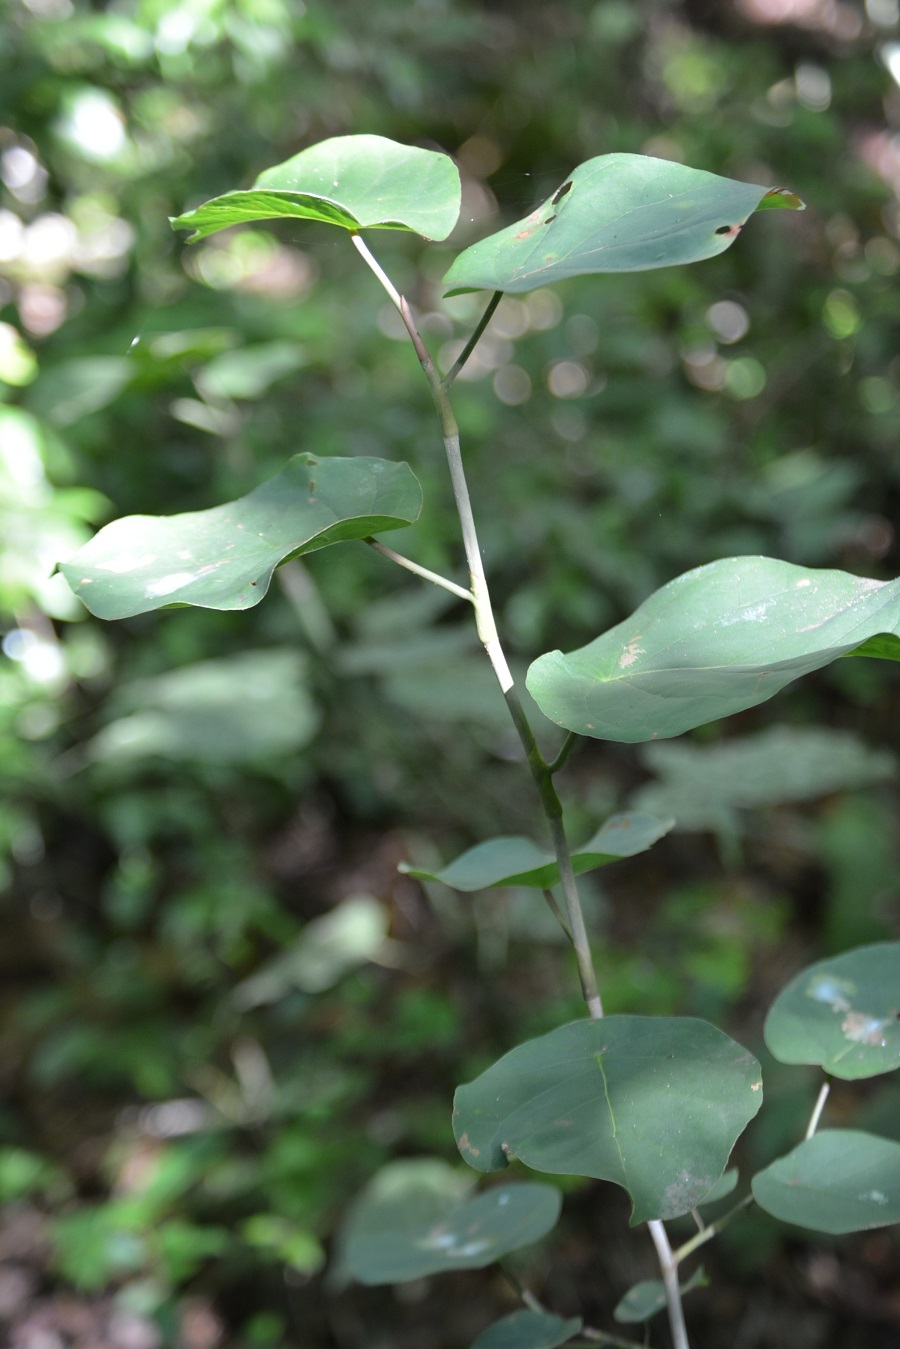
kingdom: Plantae
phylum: Tracheophyta
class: Magnoliopsida
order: Caryophyllales
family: Polygonaceae
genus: Coccoloba
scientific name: Coccoloba acapulcensis
